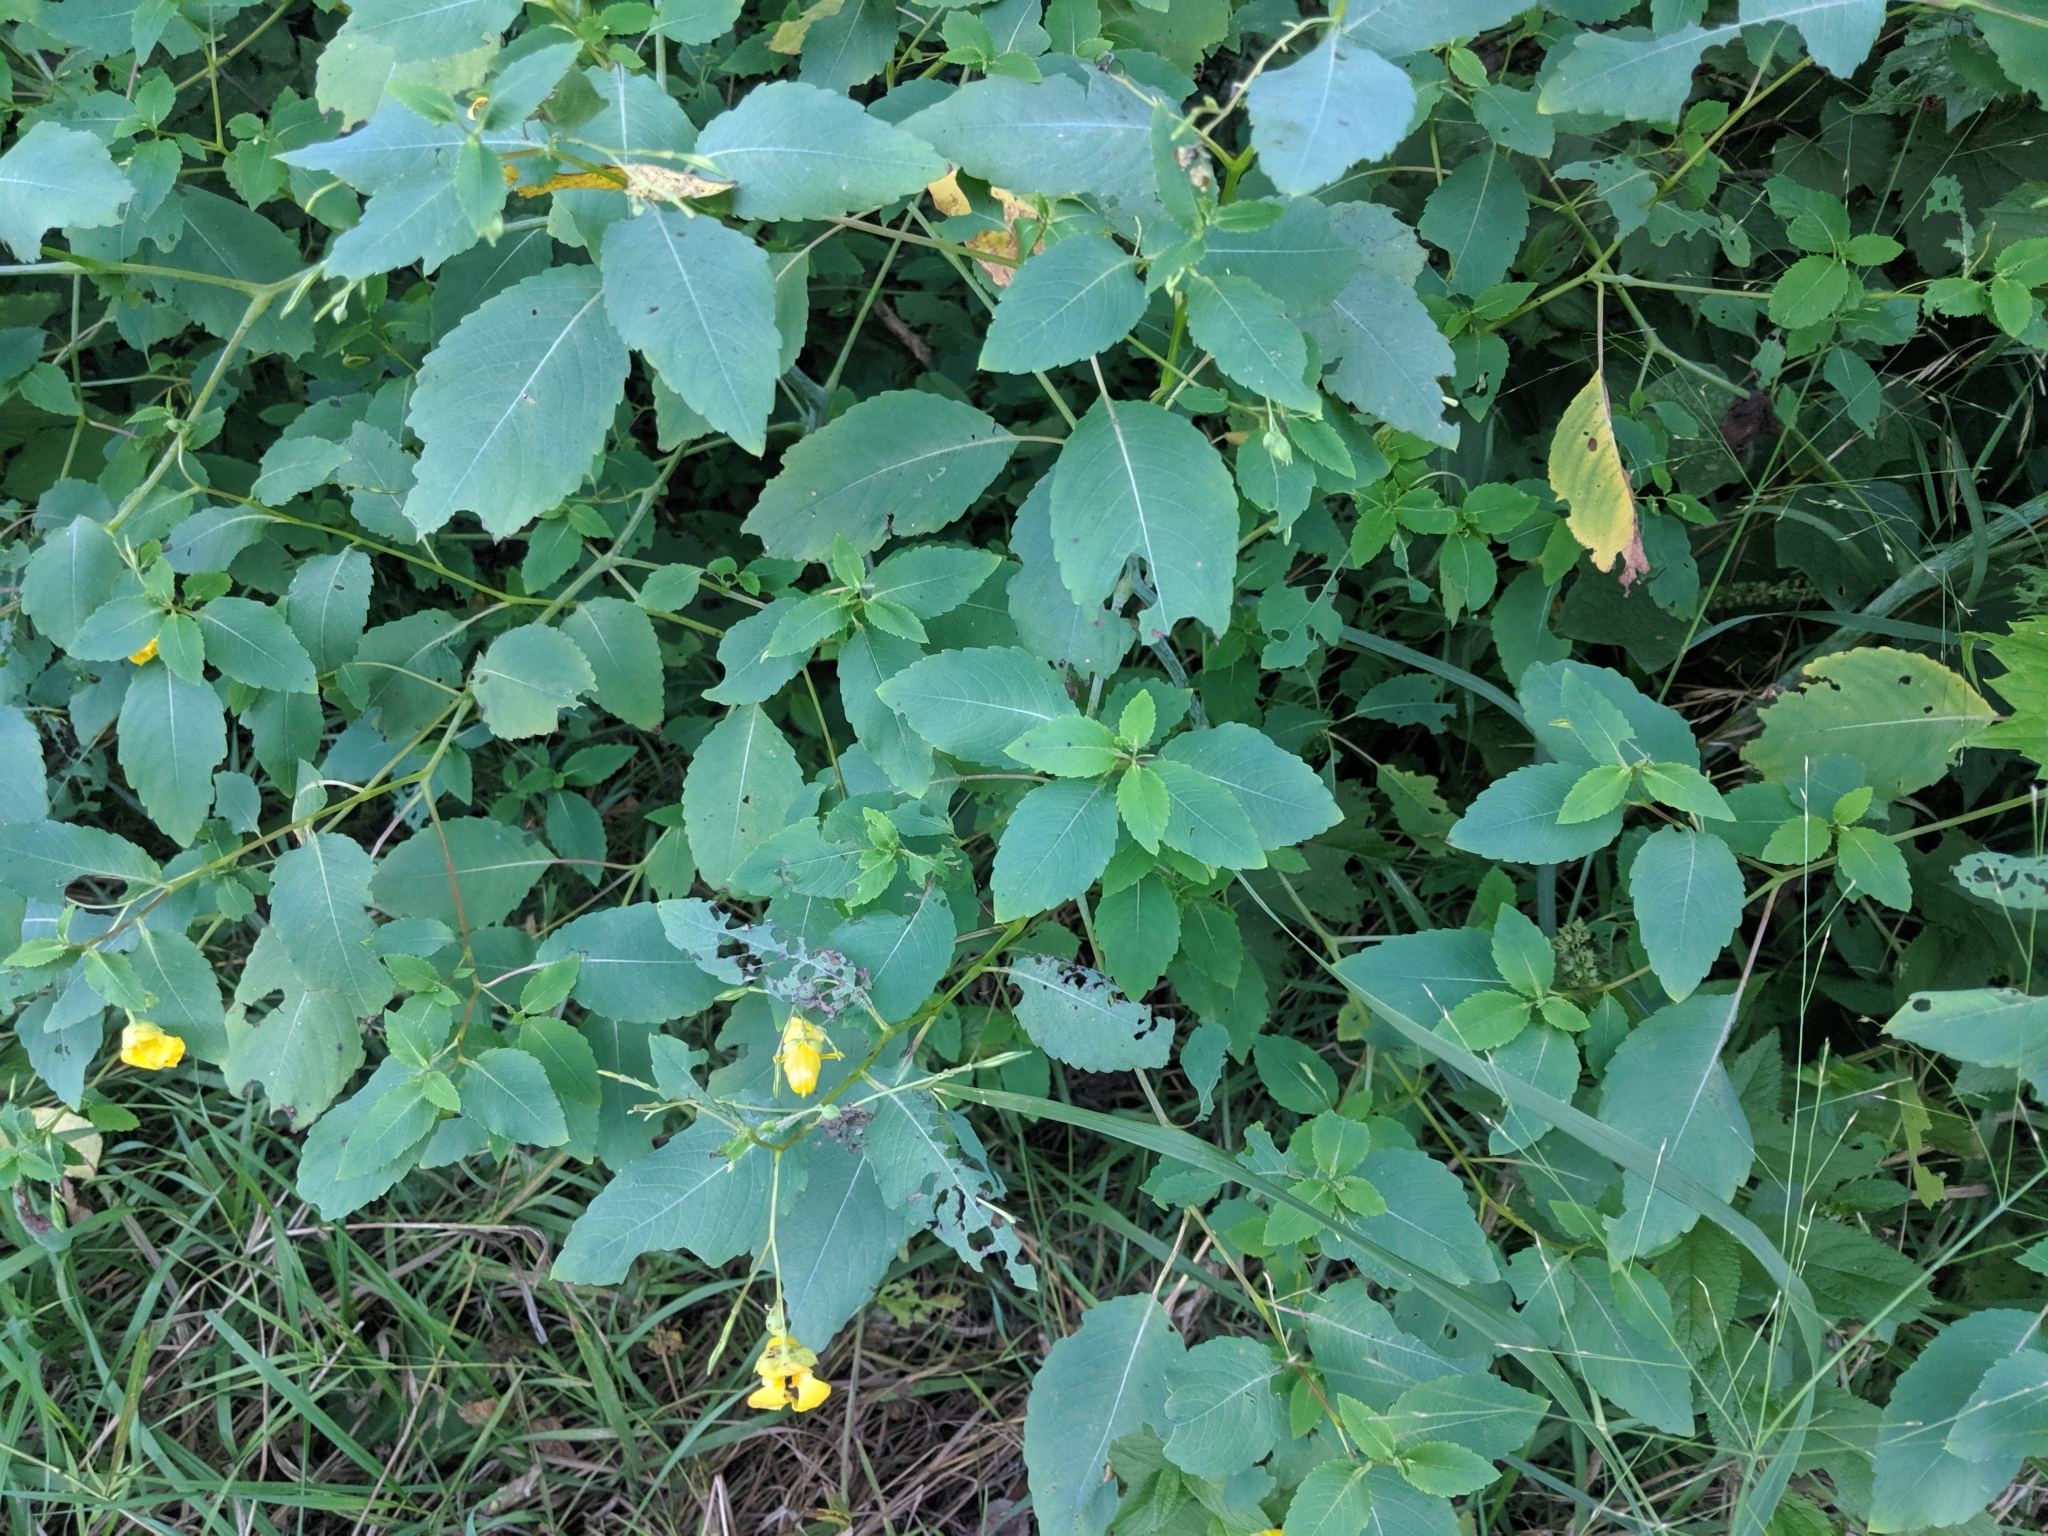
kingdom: Plantae
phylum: Tracheophyta
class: Magnoliopsida
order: Ericales
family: Balsaminaceae
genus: Impatiens
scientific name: Impatiens pallida
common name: Pale snapweed
